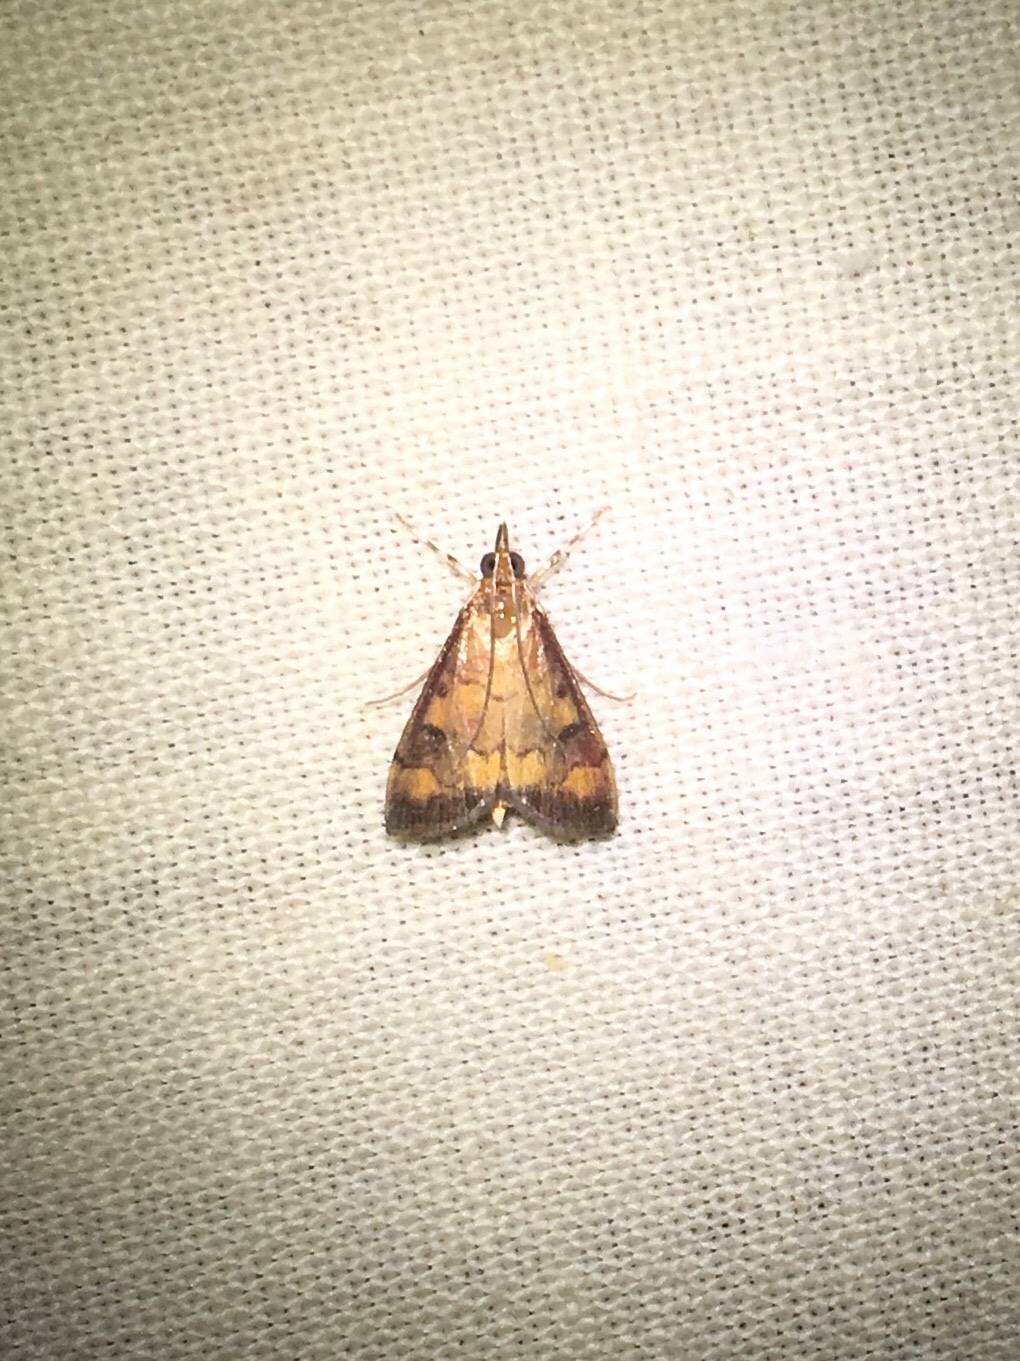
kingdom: Animalia
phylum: Arthropoda
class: Insecta
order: Lepidoptera
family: Crambidae
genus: Pyrausta
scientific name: Pyrausta phoenicealis
